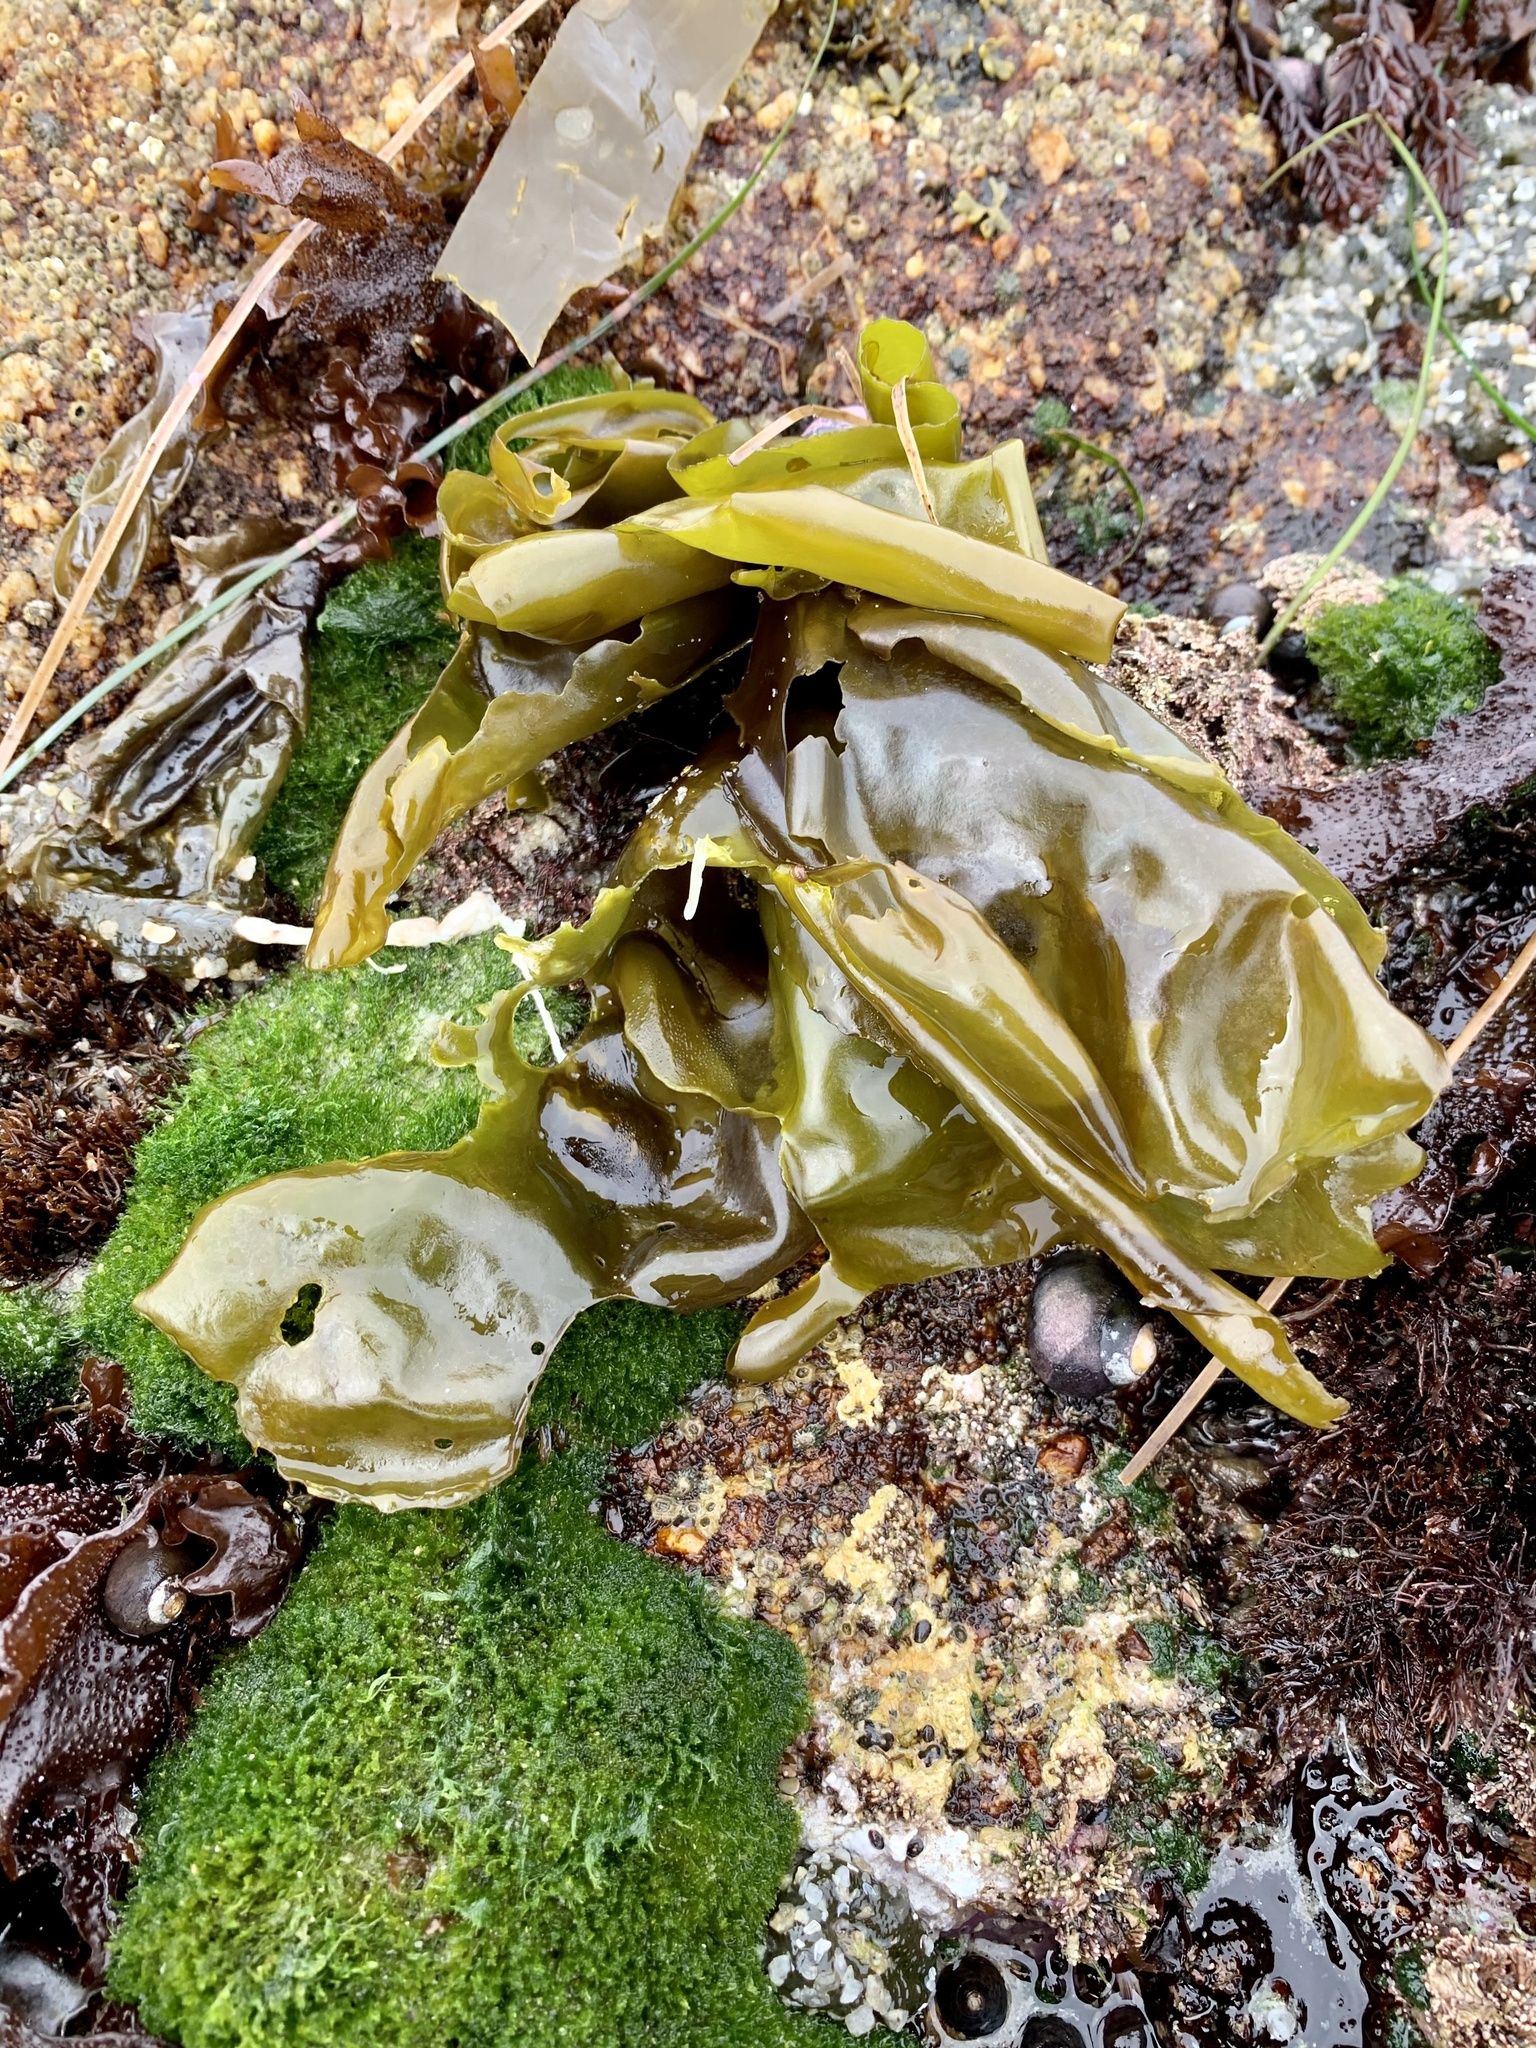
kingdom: Plantae
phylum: Rhodophyta
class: Florideophyceae
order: Gigartinales
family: Gigartinaceae
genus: Mazzaella
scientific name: Mazzaella flaccida
